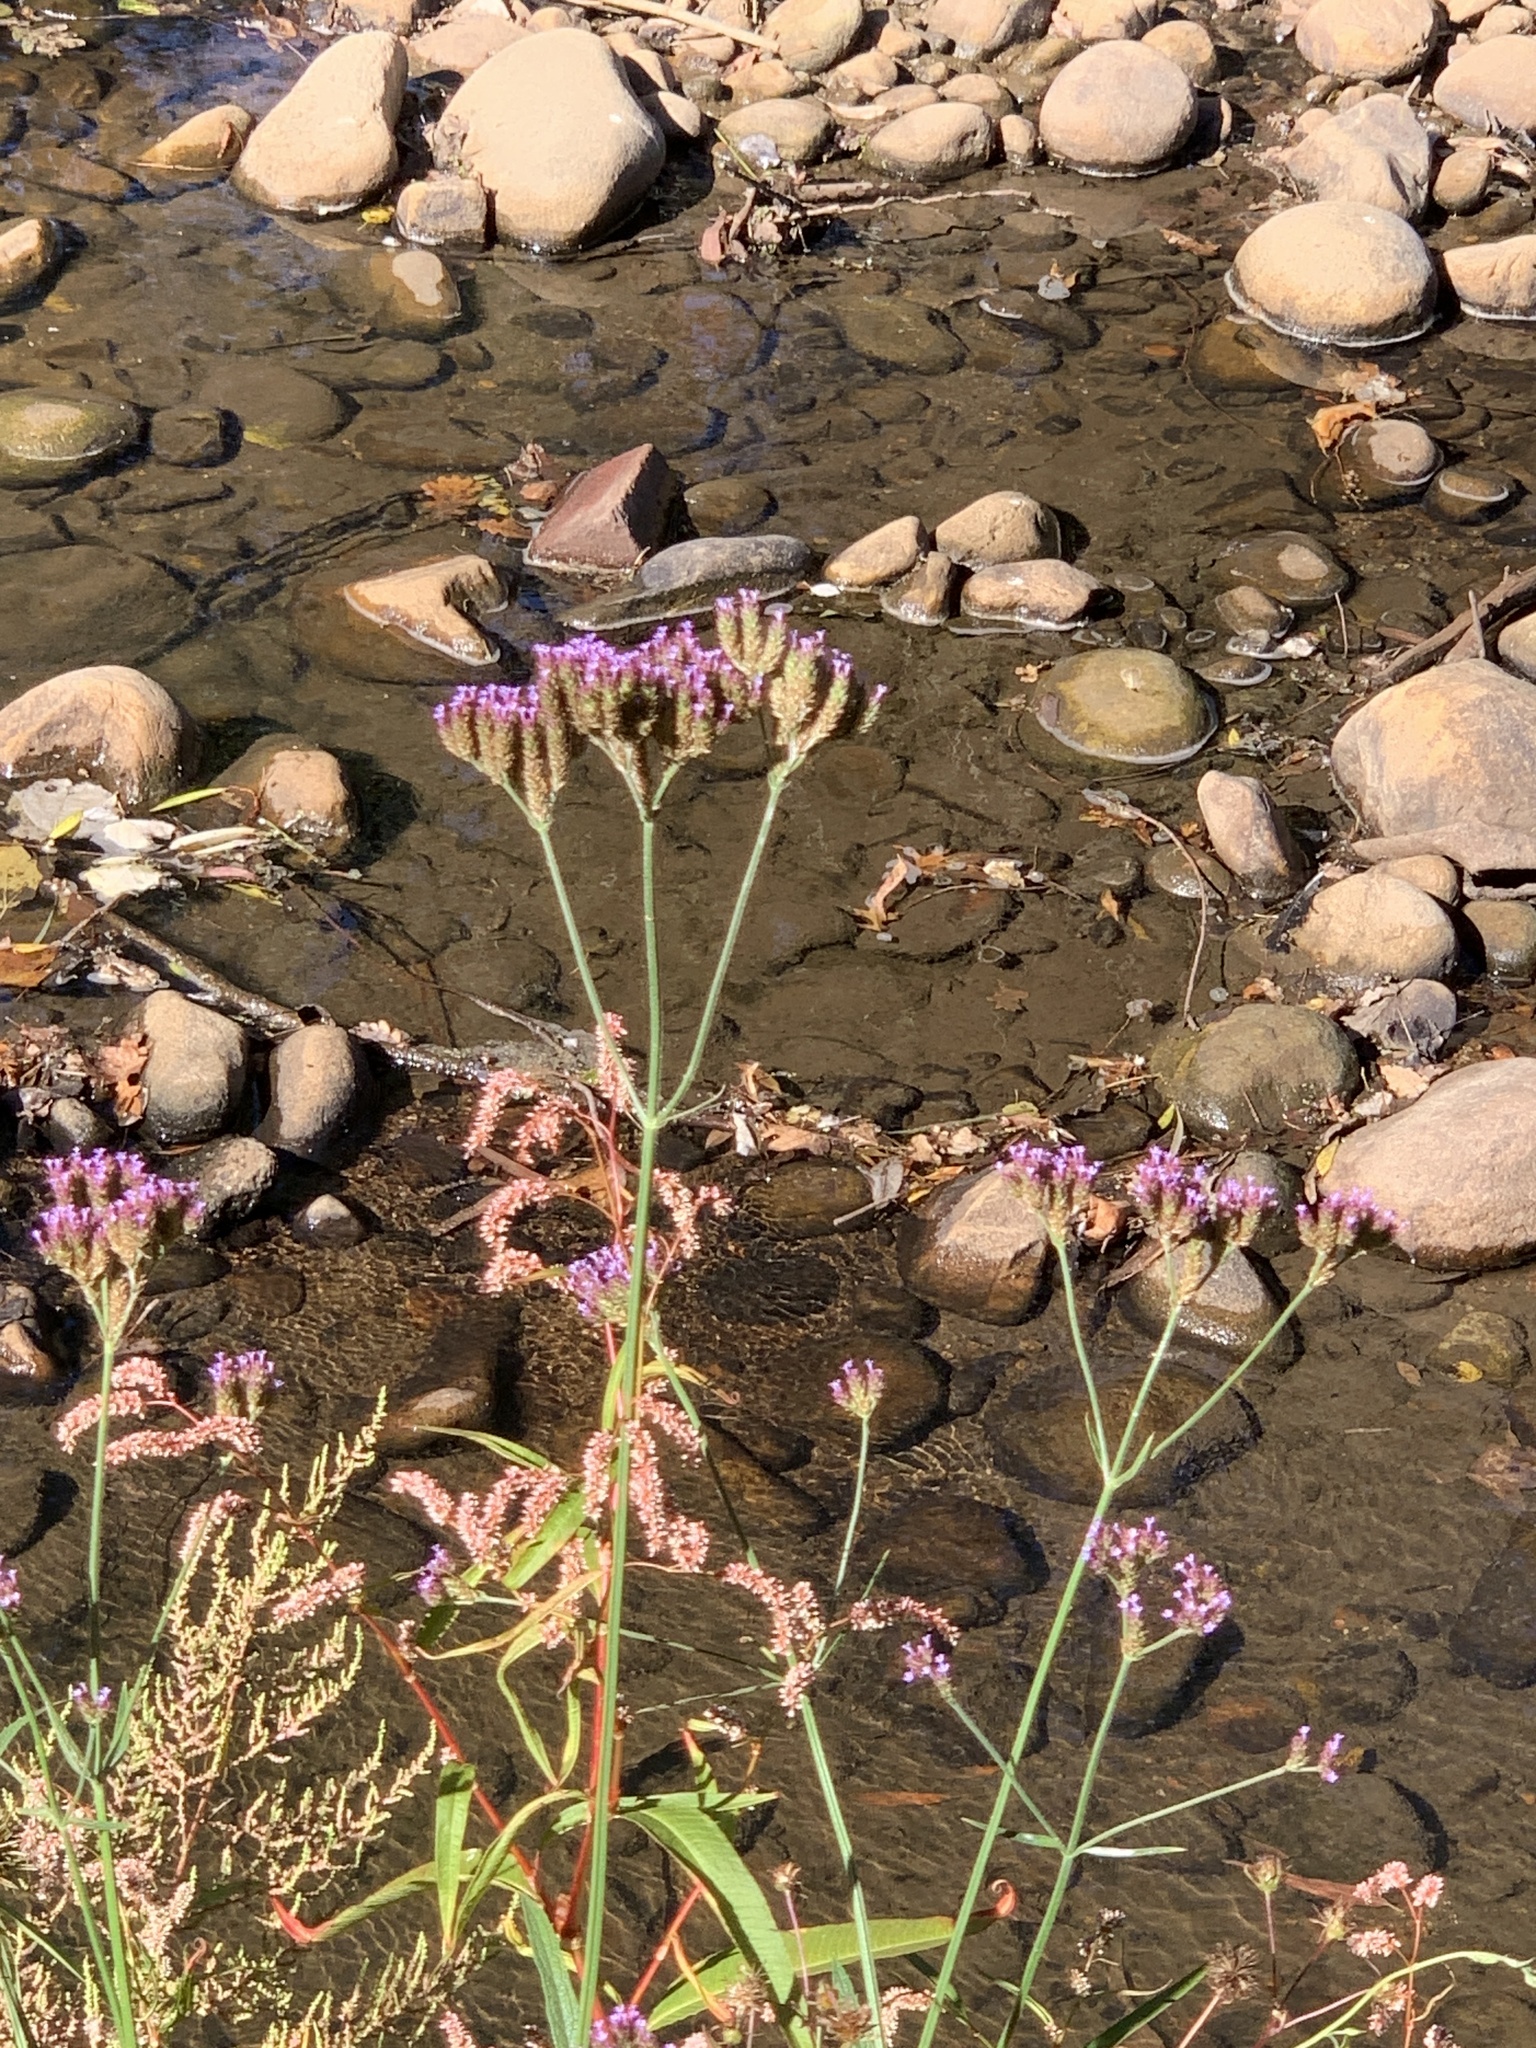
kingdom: Plantae
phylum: Tracheophyta
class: Magnoliopsida
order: Lamiales
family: Verbenaceae
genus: Verbena
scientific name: Verbena bonariensis
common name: Purpletop vervain
